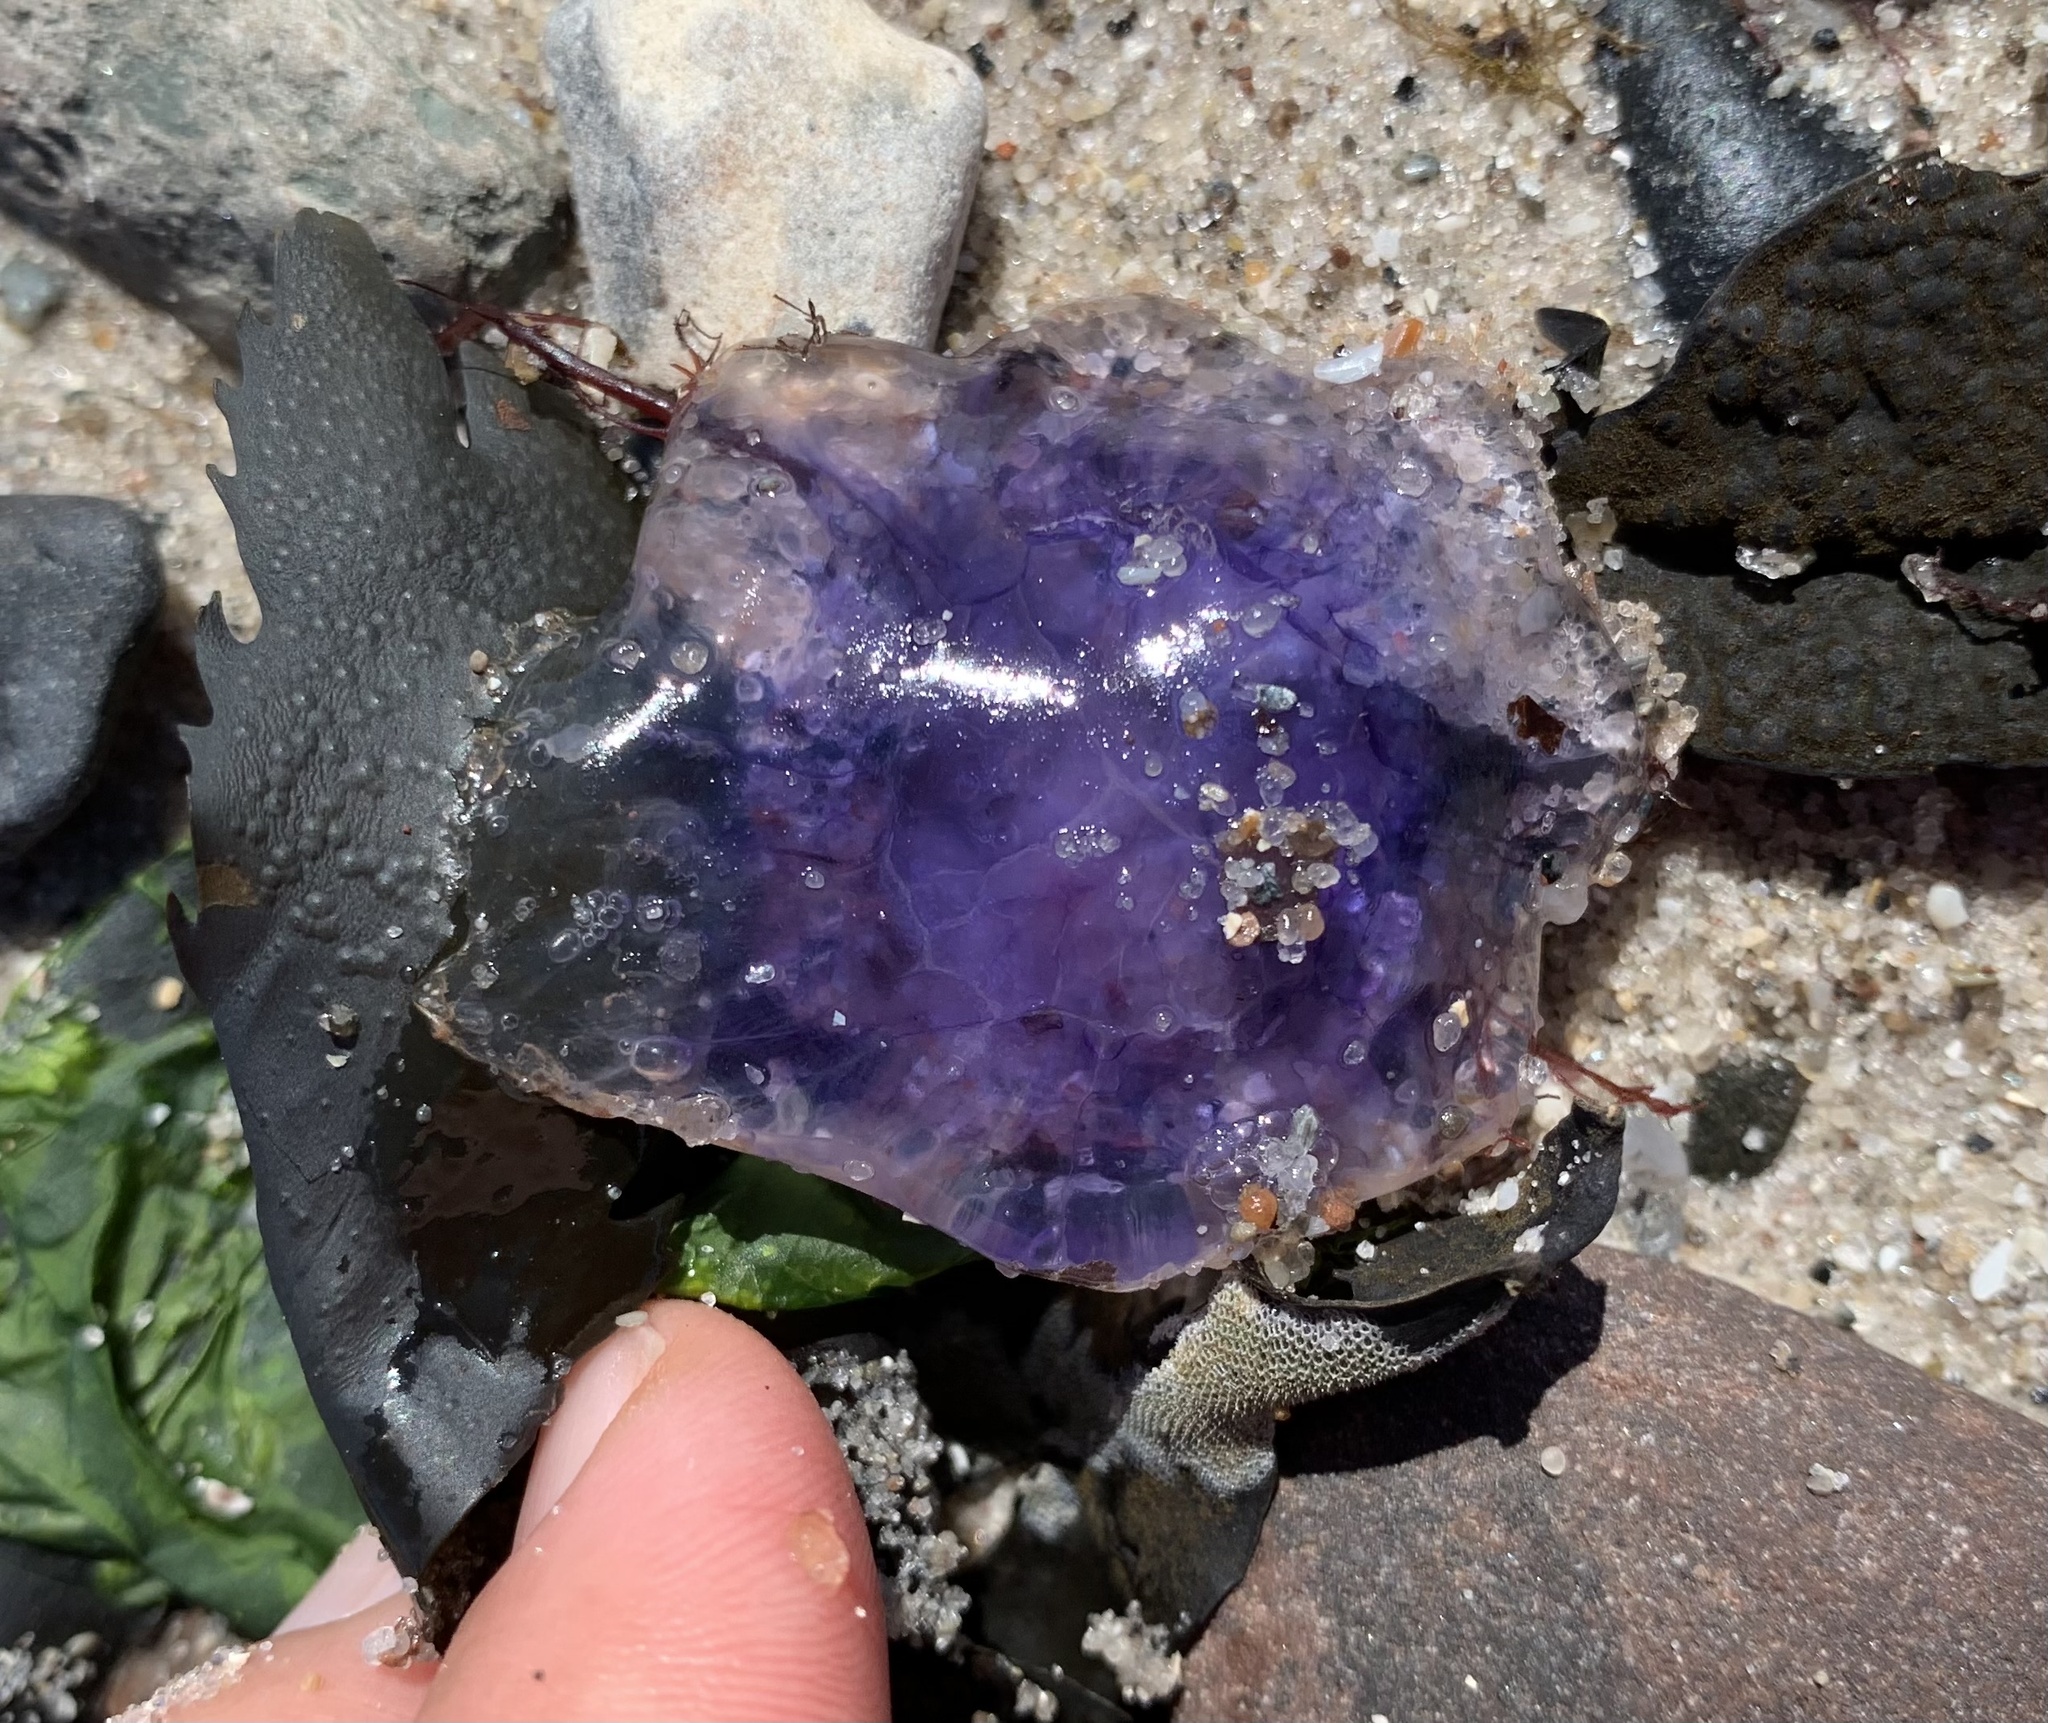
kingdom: Animalia
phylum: Cnidaria
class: Scyphozoa
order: Semaeostomeae
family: Cyaneidae
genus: Cyanea
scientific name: Cyanea lamarckii
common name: Blue jellyfish
